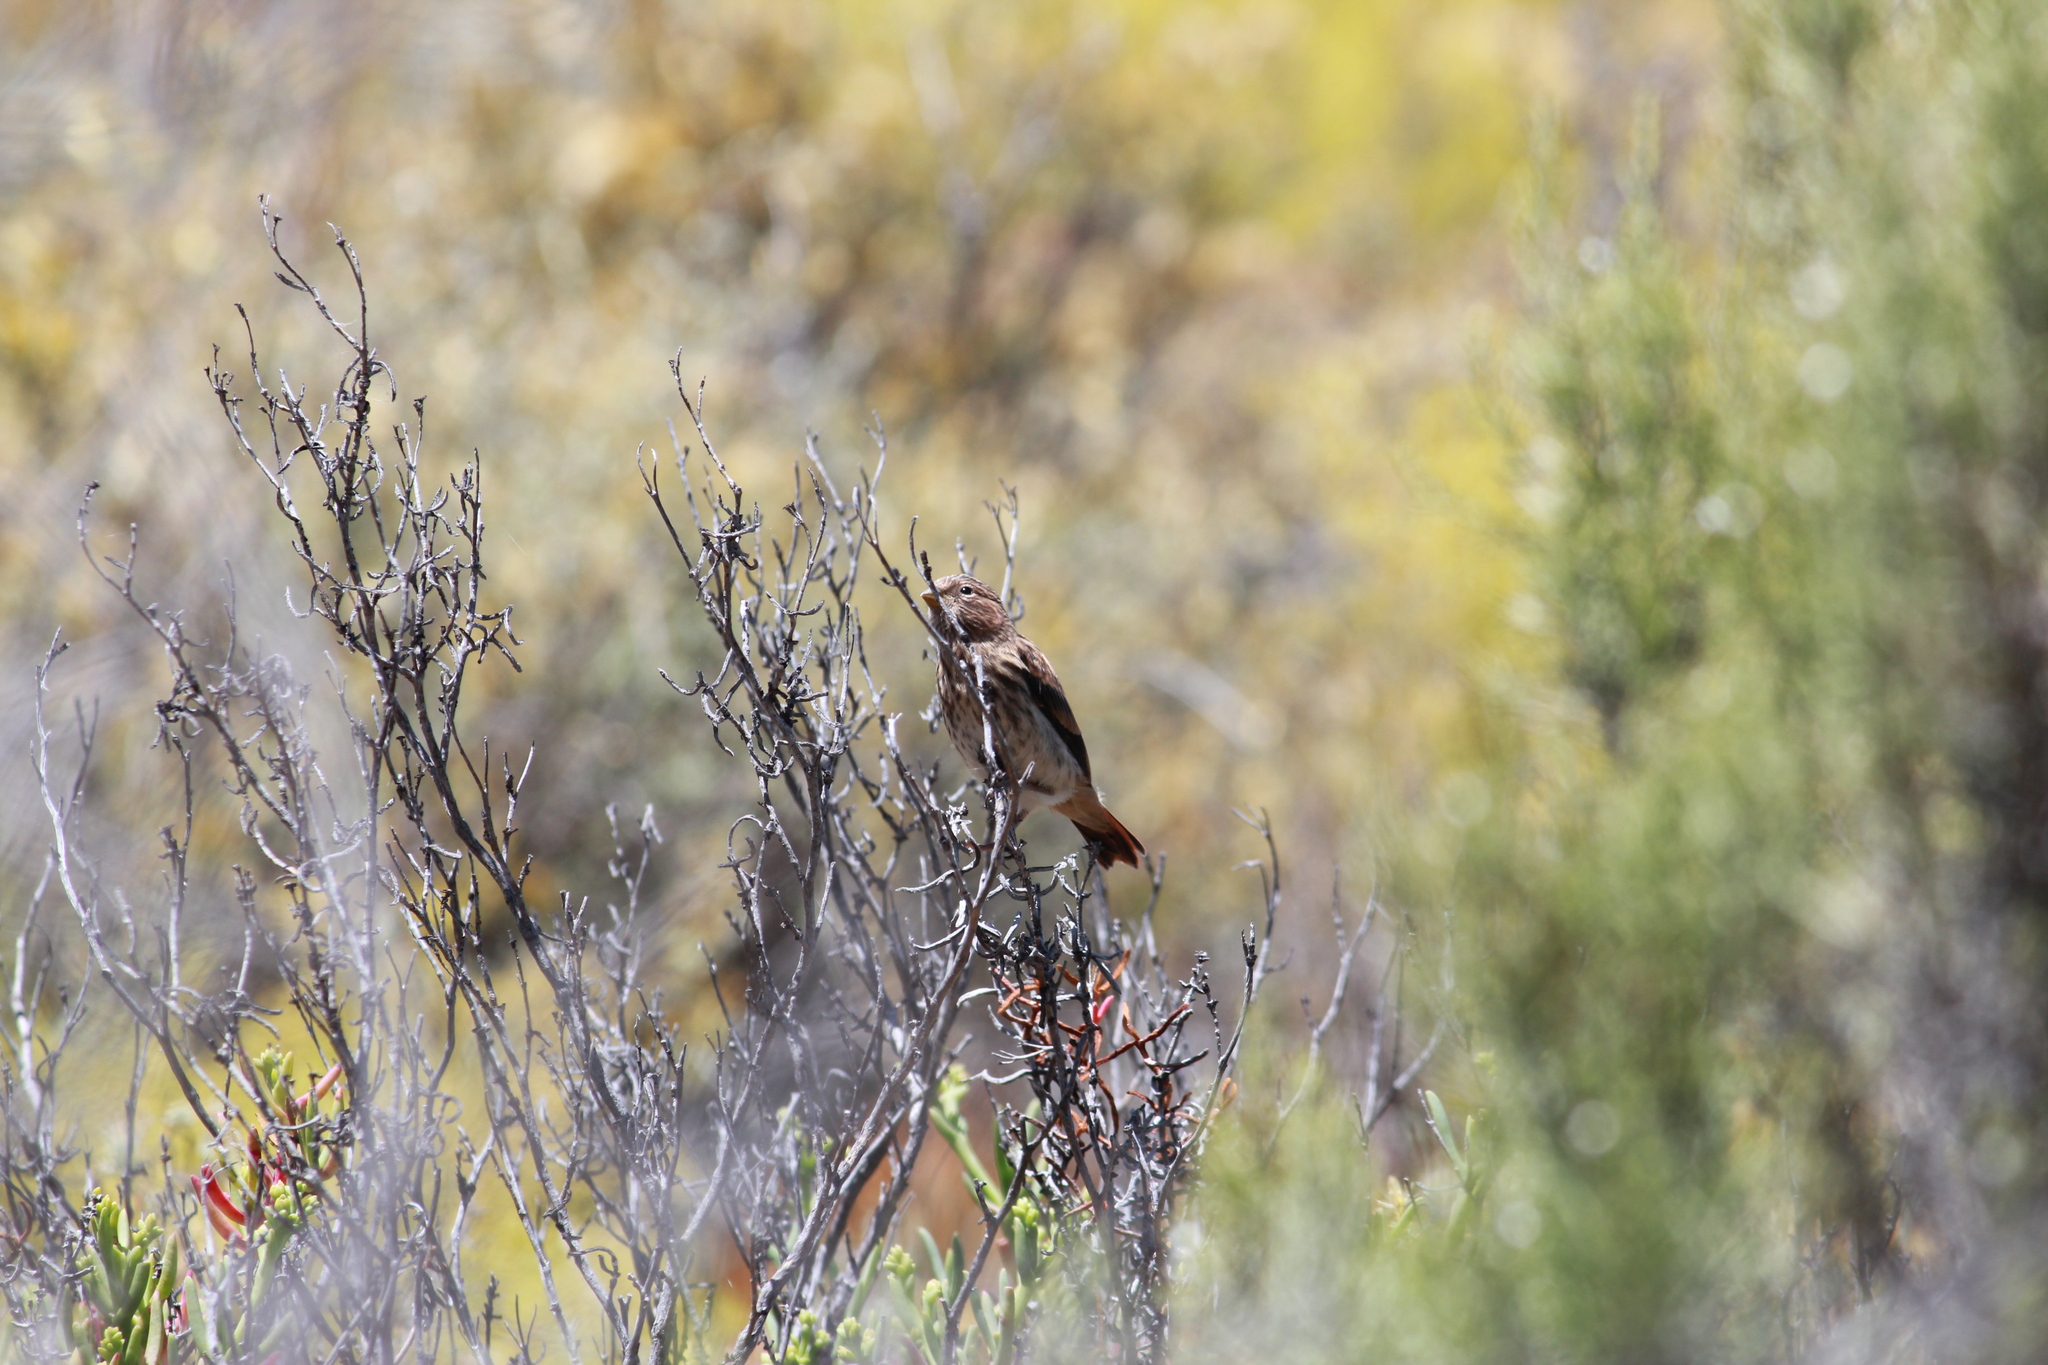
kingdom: Animalia
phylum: Chordata
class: Aves
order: Passeriformes
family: Fringillidae
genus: Serinus
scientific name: Serinus alario
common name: Black-headed canary
